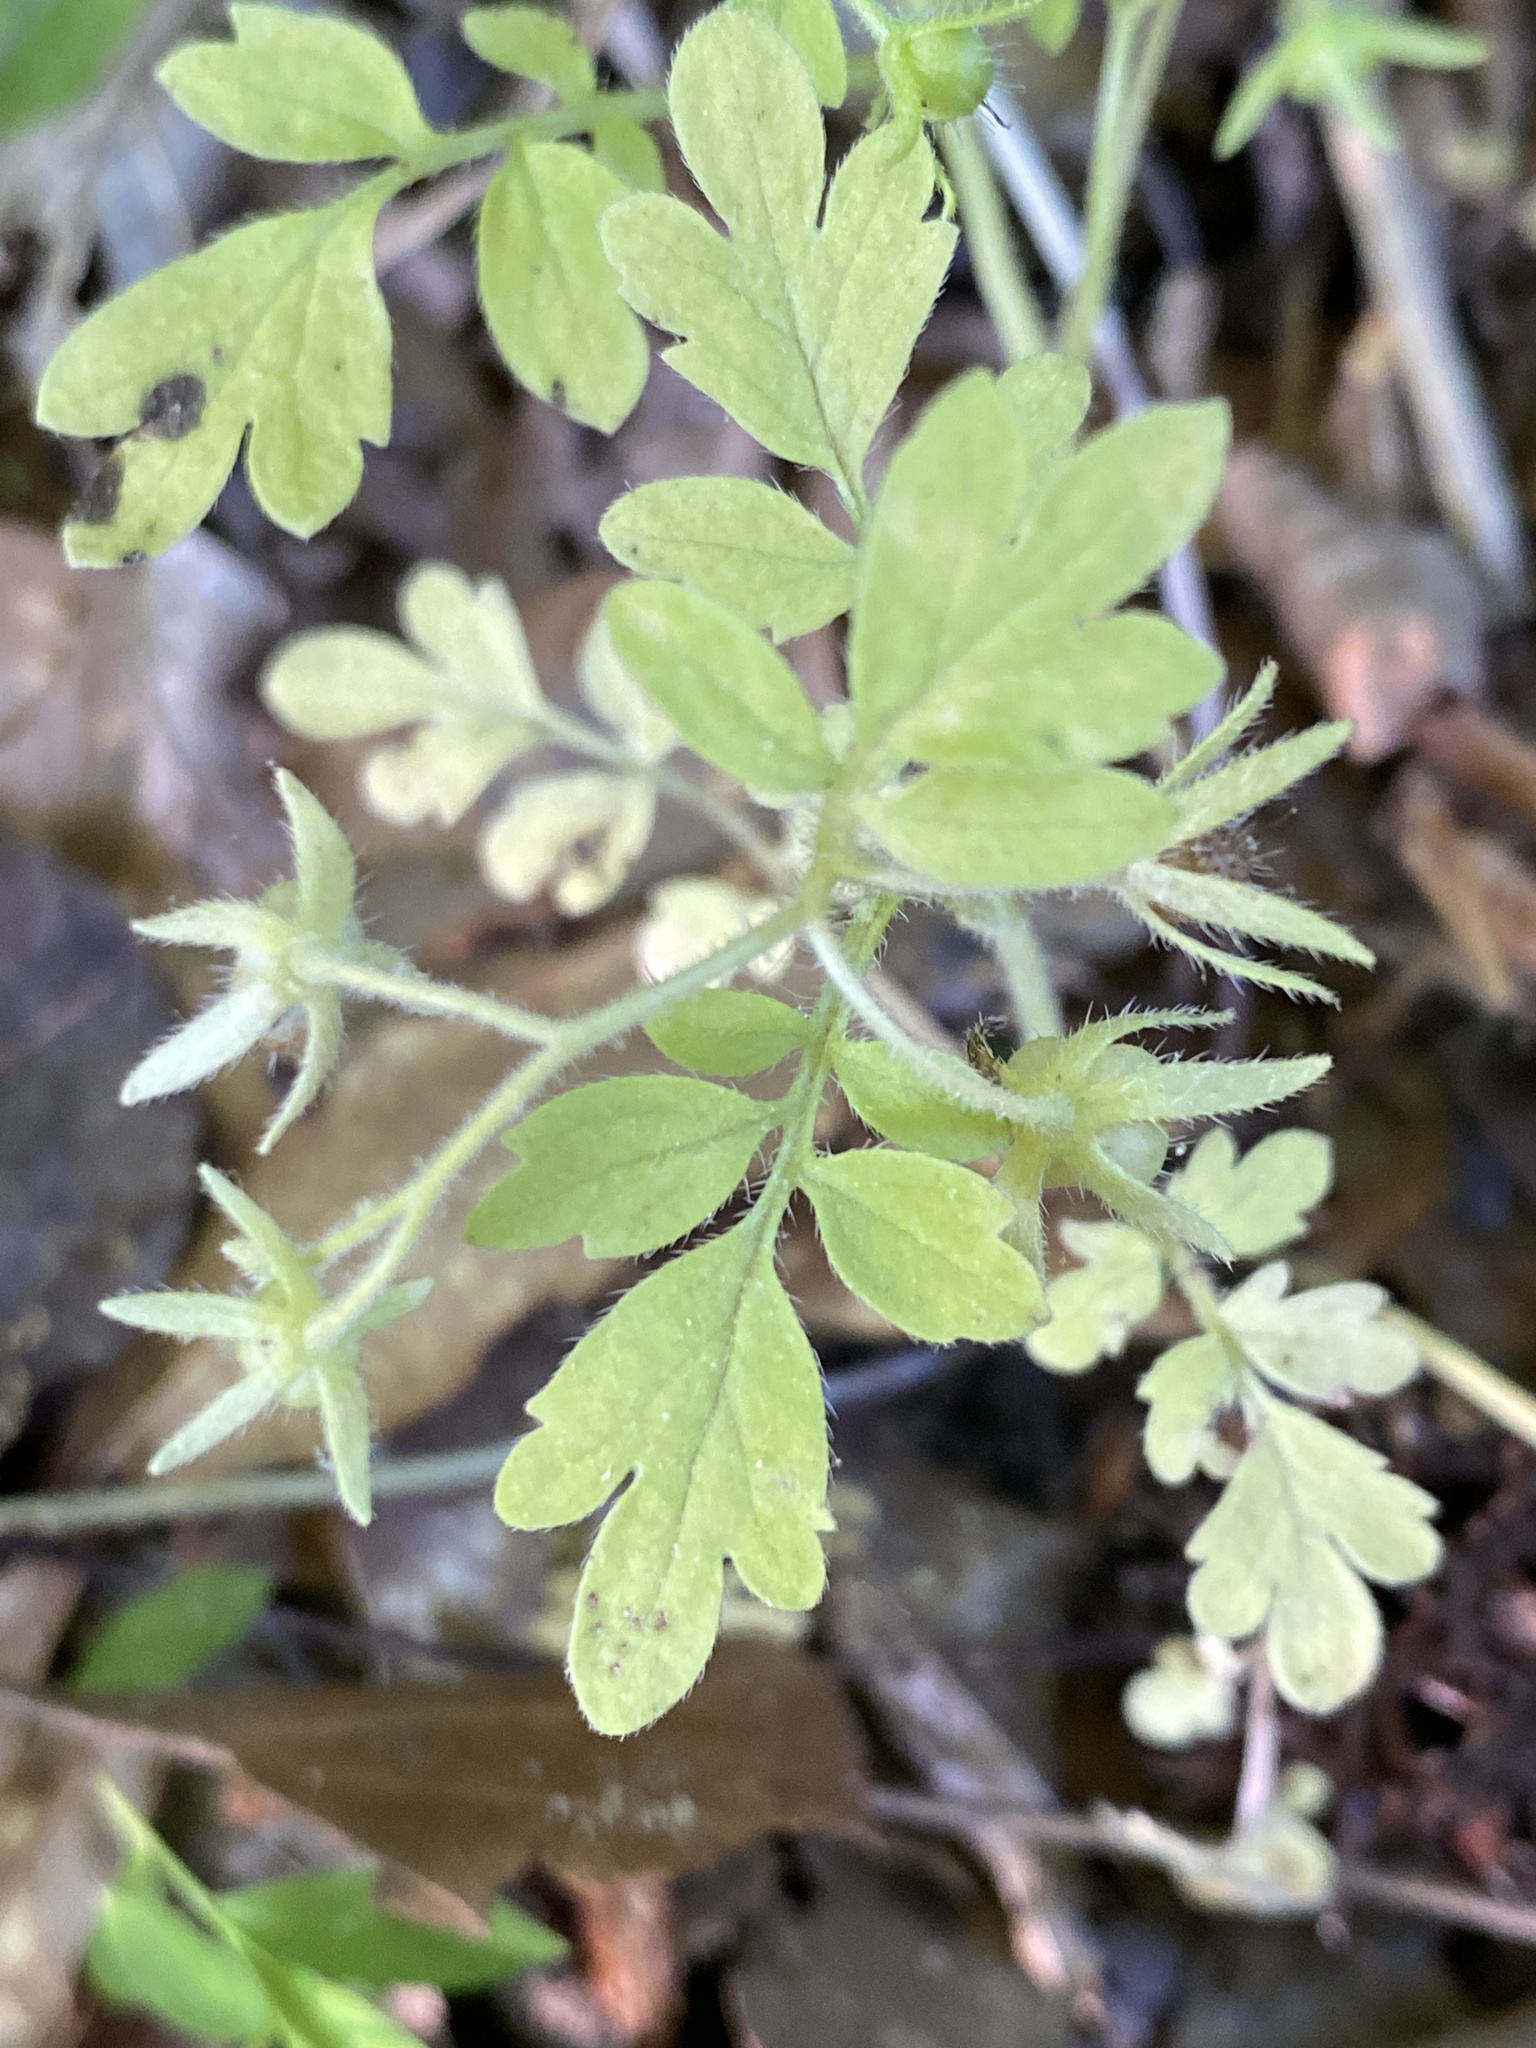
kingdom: Plantae
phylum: Tracheophyta
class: Magnoliopsida
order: Boraginales
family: Hydrophyllaceae
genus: Phacelia
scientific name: Phacelia covillei
